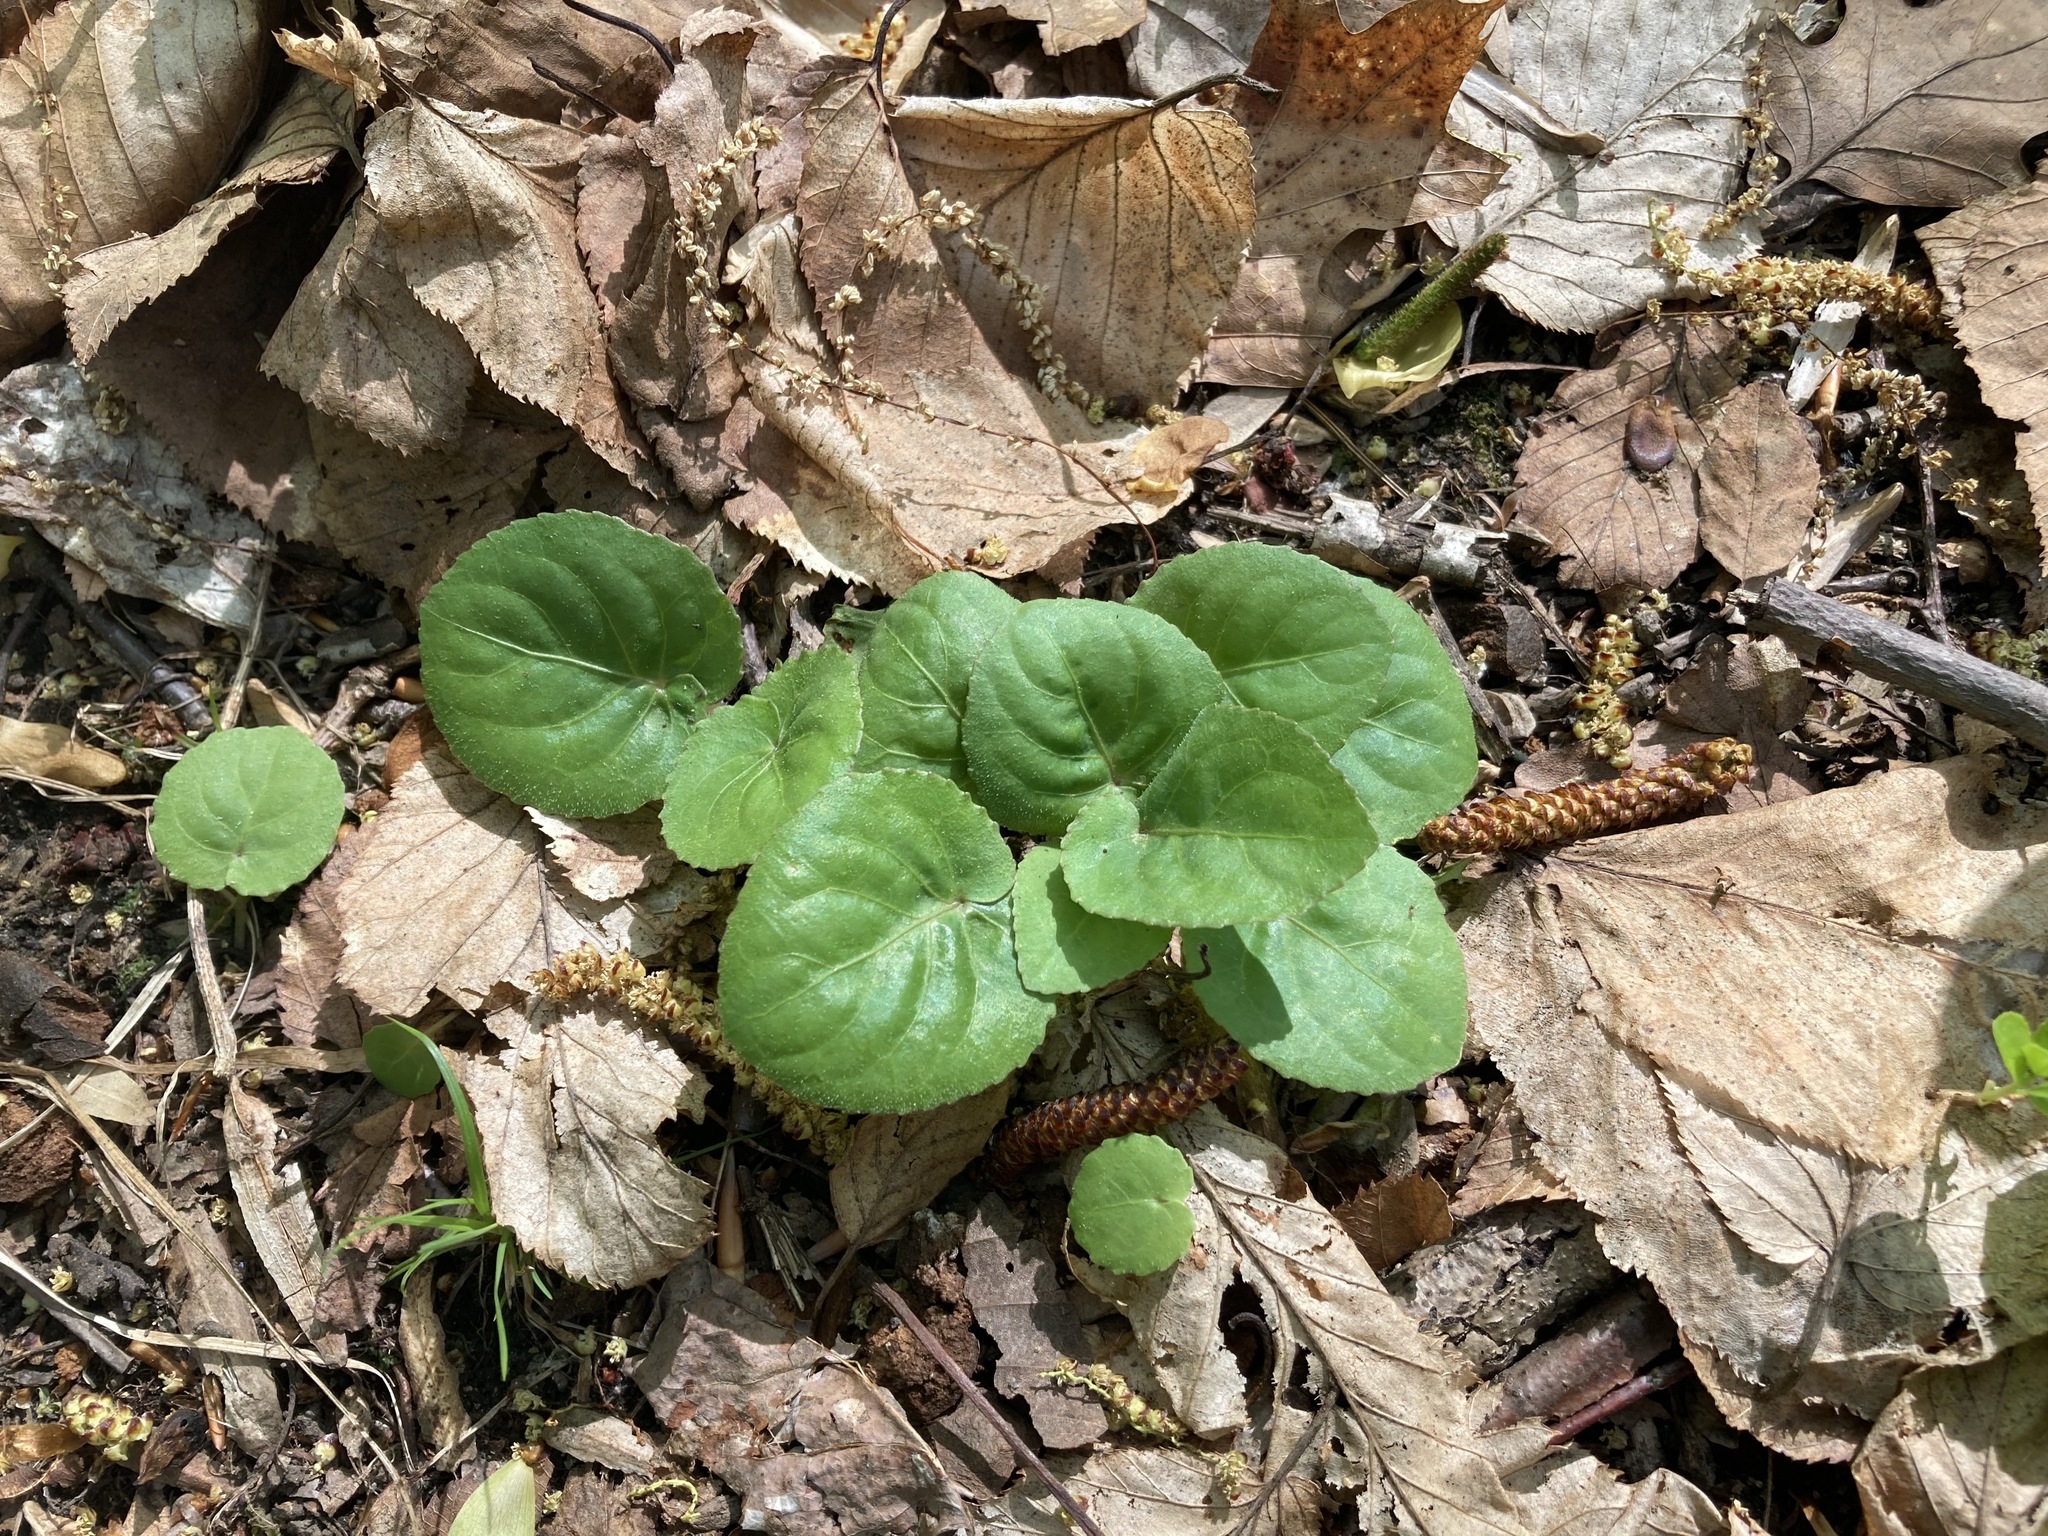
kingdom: Plantae
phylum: Tracheophyta
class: Magnoliopsida
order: Malpighiales
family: Violaceae
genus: Viola
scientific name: Viola rotundifolia
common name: Early yellow violet
